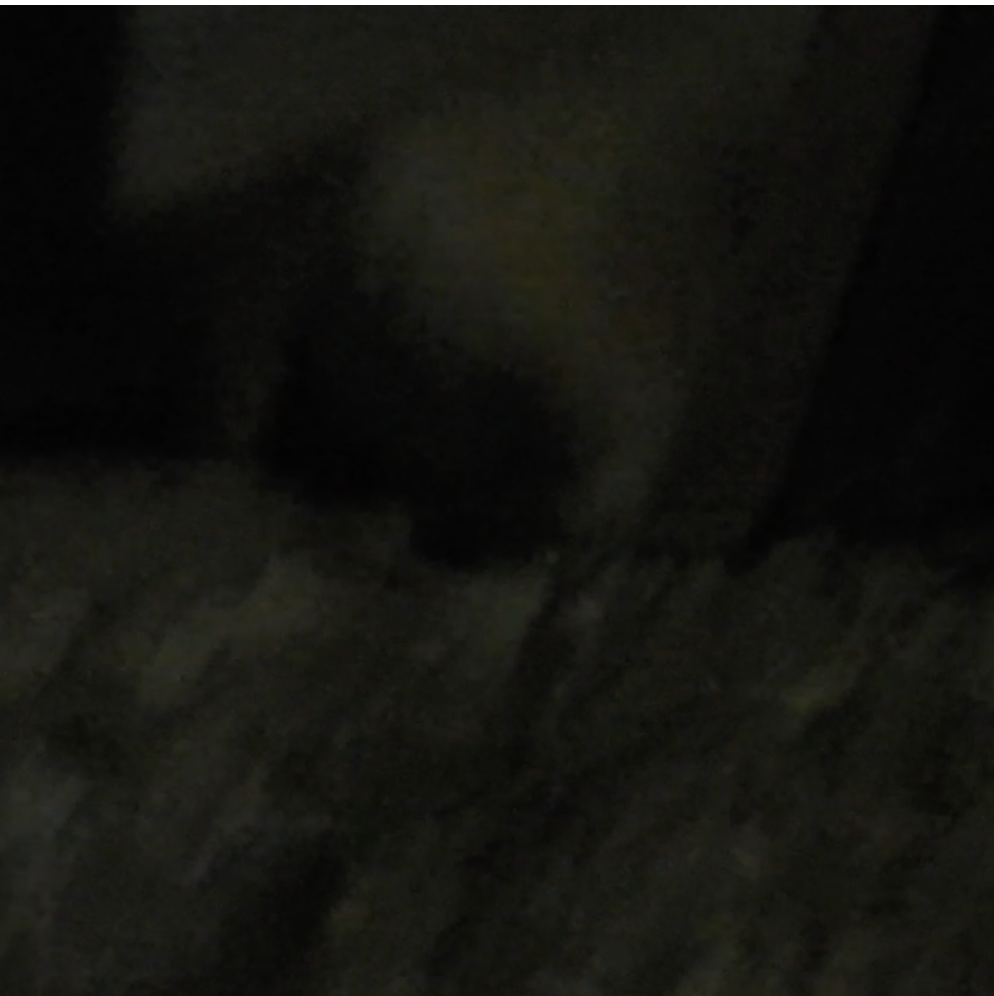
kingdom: Animalia
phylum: Chordata
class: Mammalia
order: Carnivora
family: Canidae
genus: Urocyon
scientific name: Urocyon cinereoargenteus
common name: Gray fox
